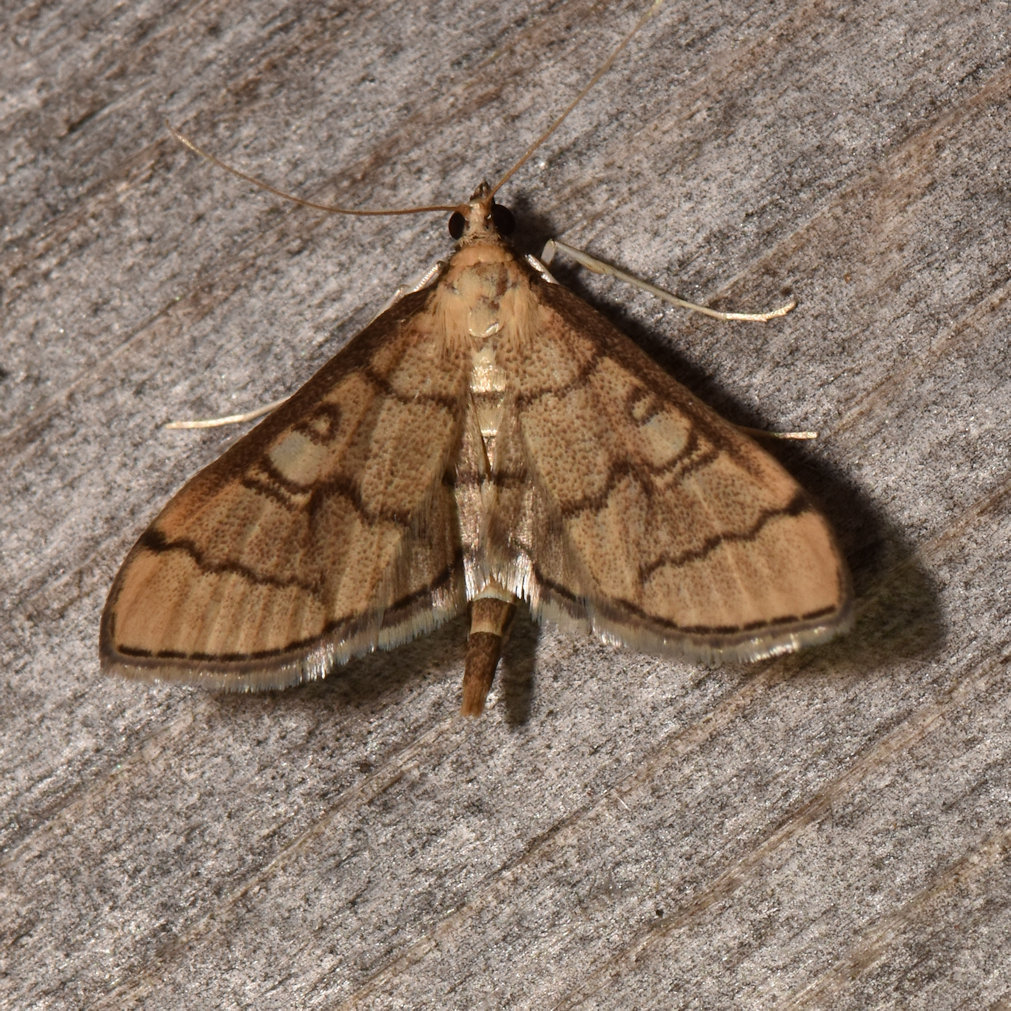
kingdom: Animalia
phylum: Arthropoda
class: Insecta
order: Lepidoptera
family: Crambidae
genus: Lamprosema
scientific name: Lamprosema Blepharomastix ranalis
